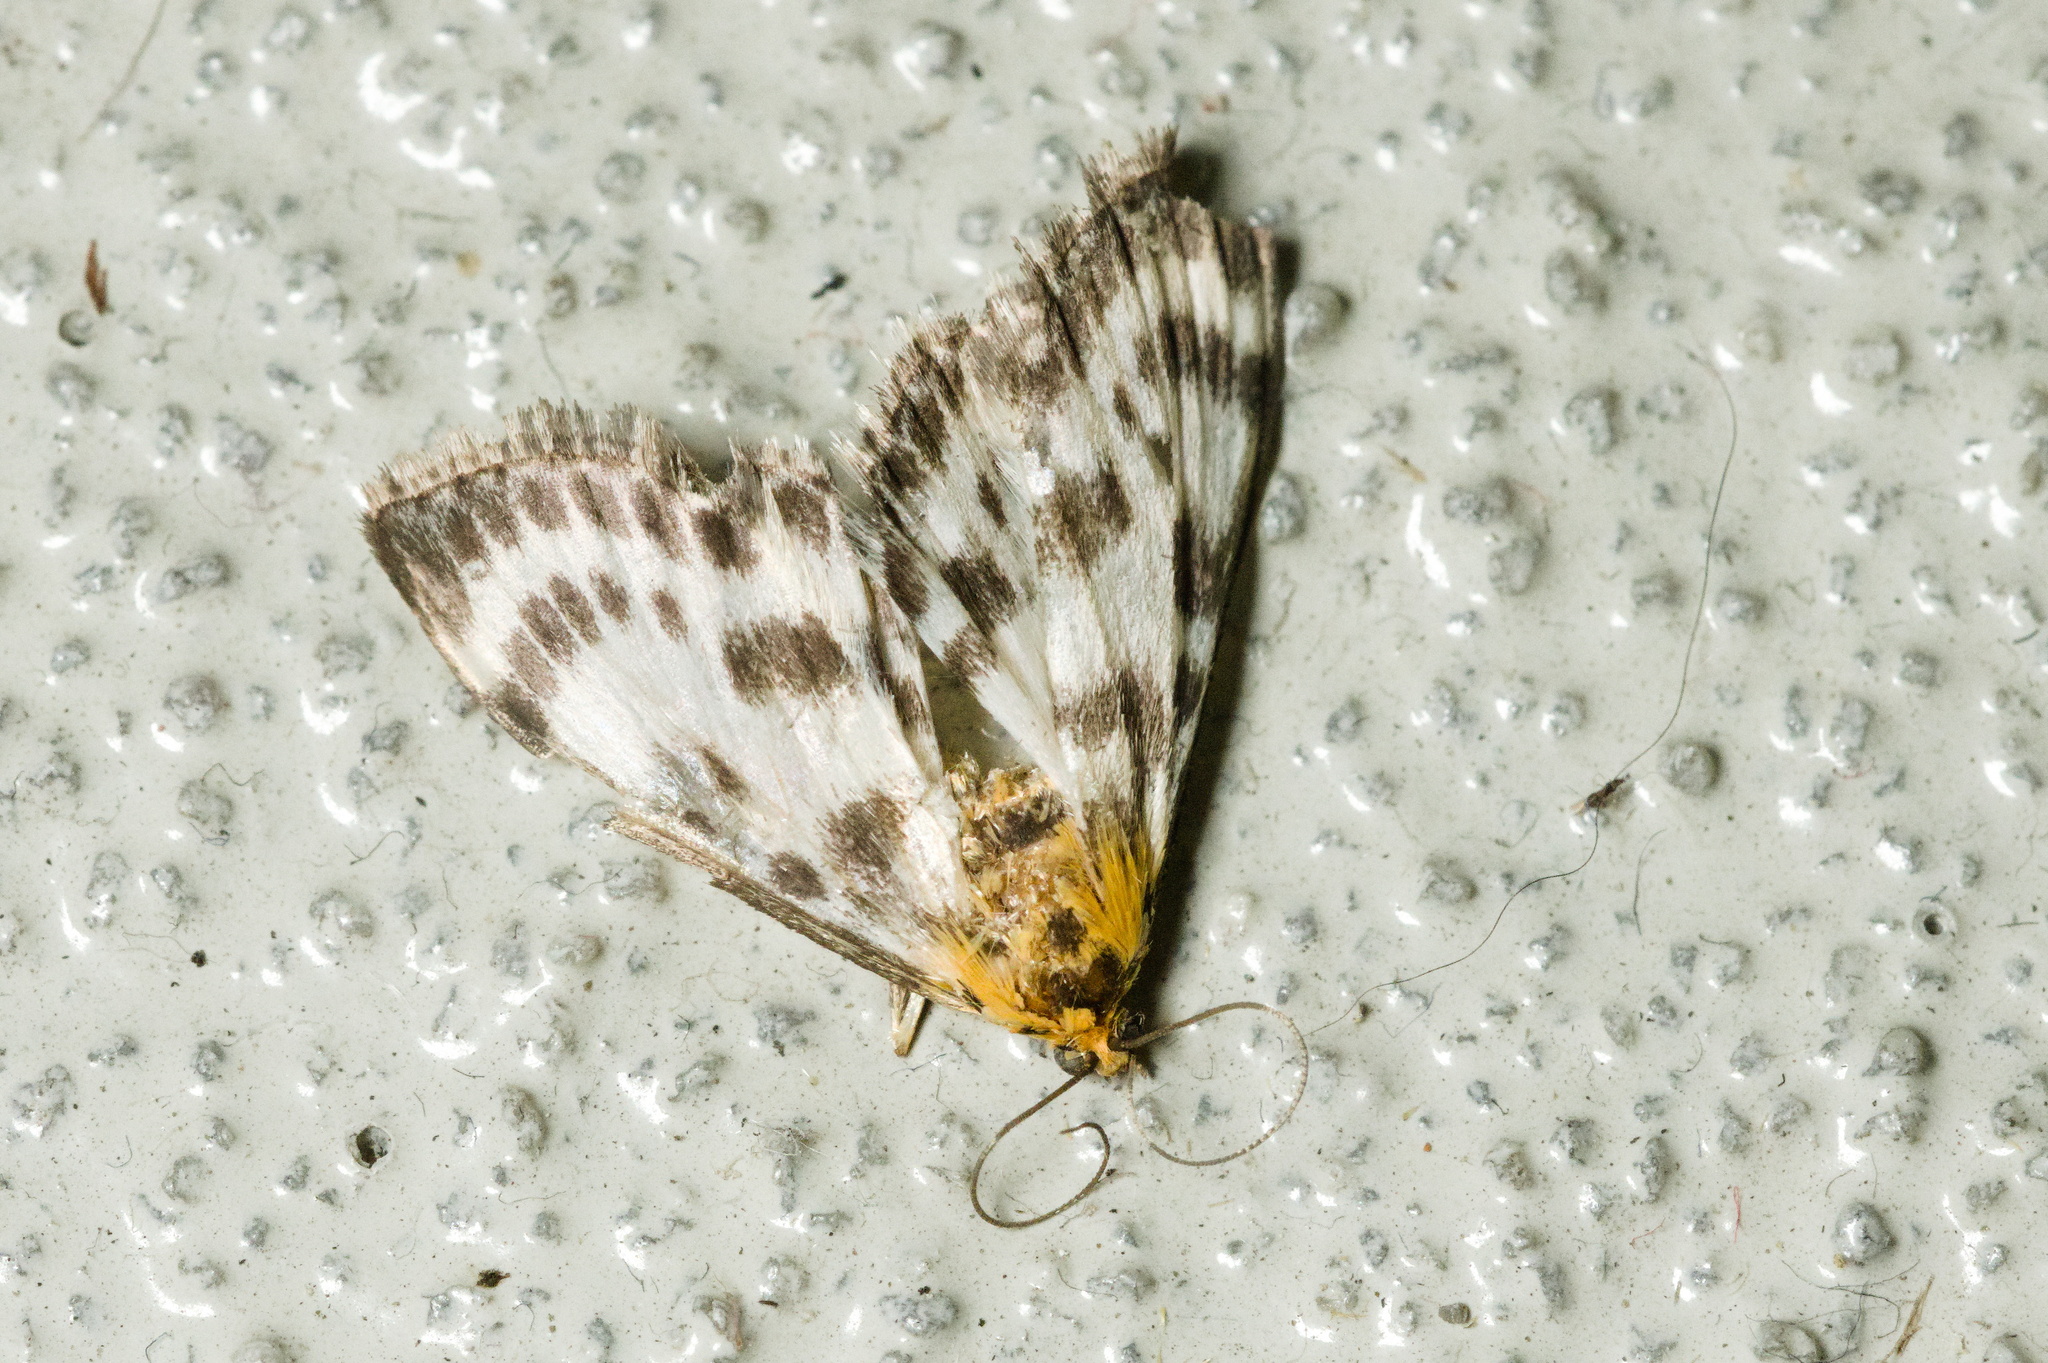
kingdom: Animalia
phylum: Arthropoda
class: Insecta
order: Lepidoptera
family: Crambidae
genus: Anania
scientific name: Anania hortulata
